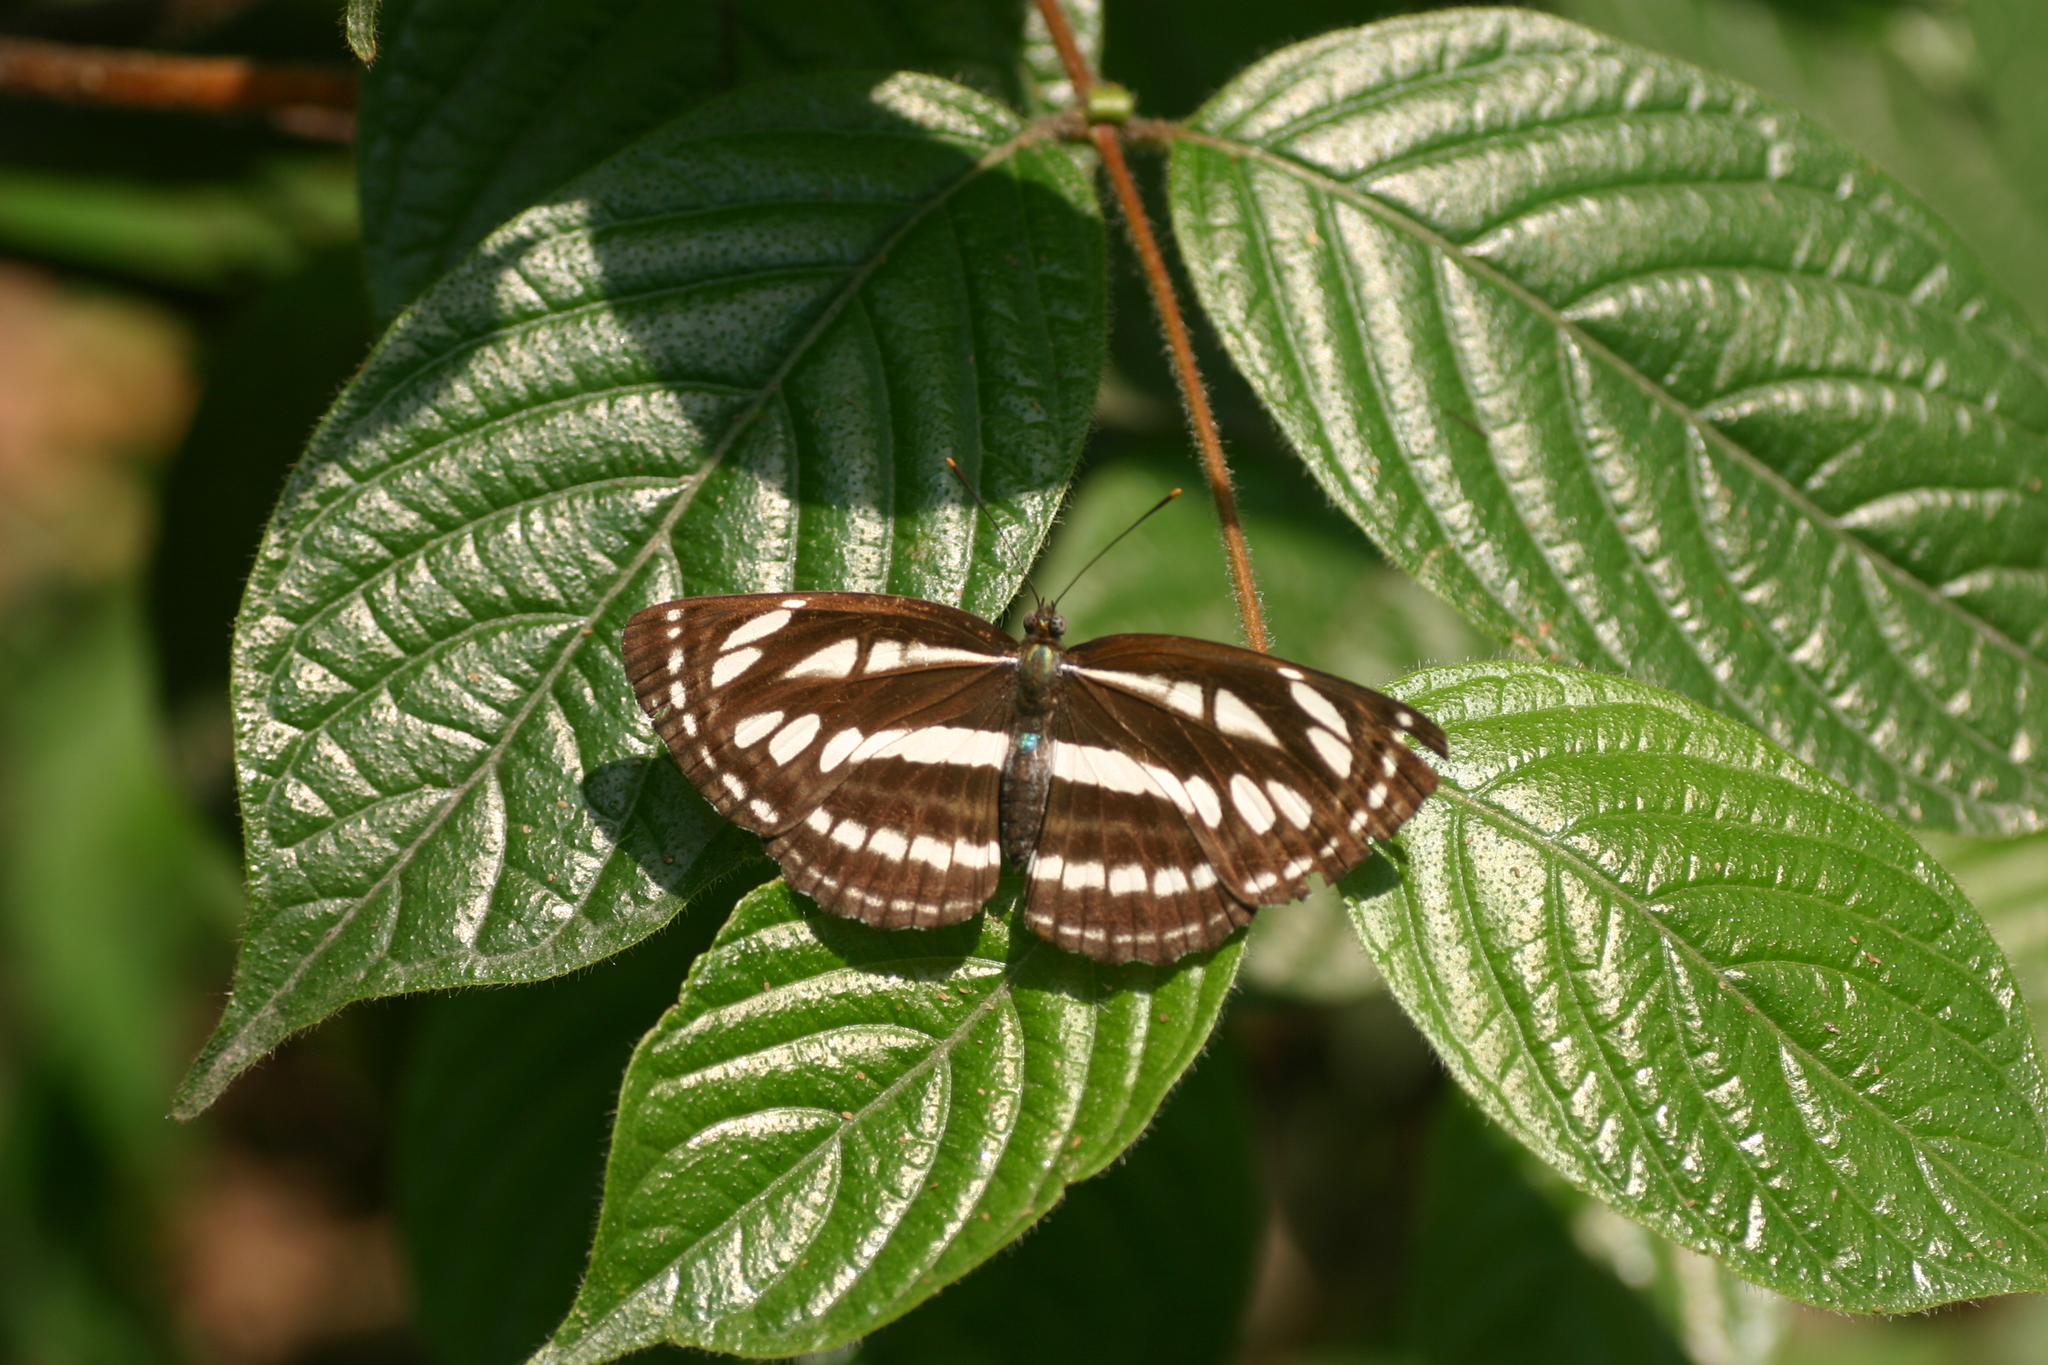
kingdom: Animalia
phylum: Arthropoda
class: Insecta
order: Lepidoptera
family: Nymphalidae
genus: Neptis
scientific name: Neptis hylas
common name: Common sailer
